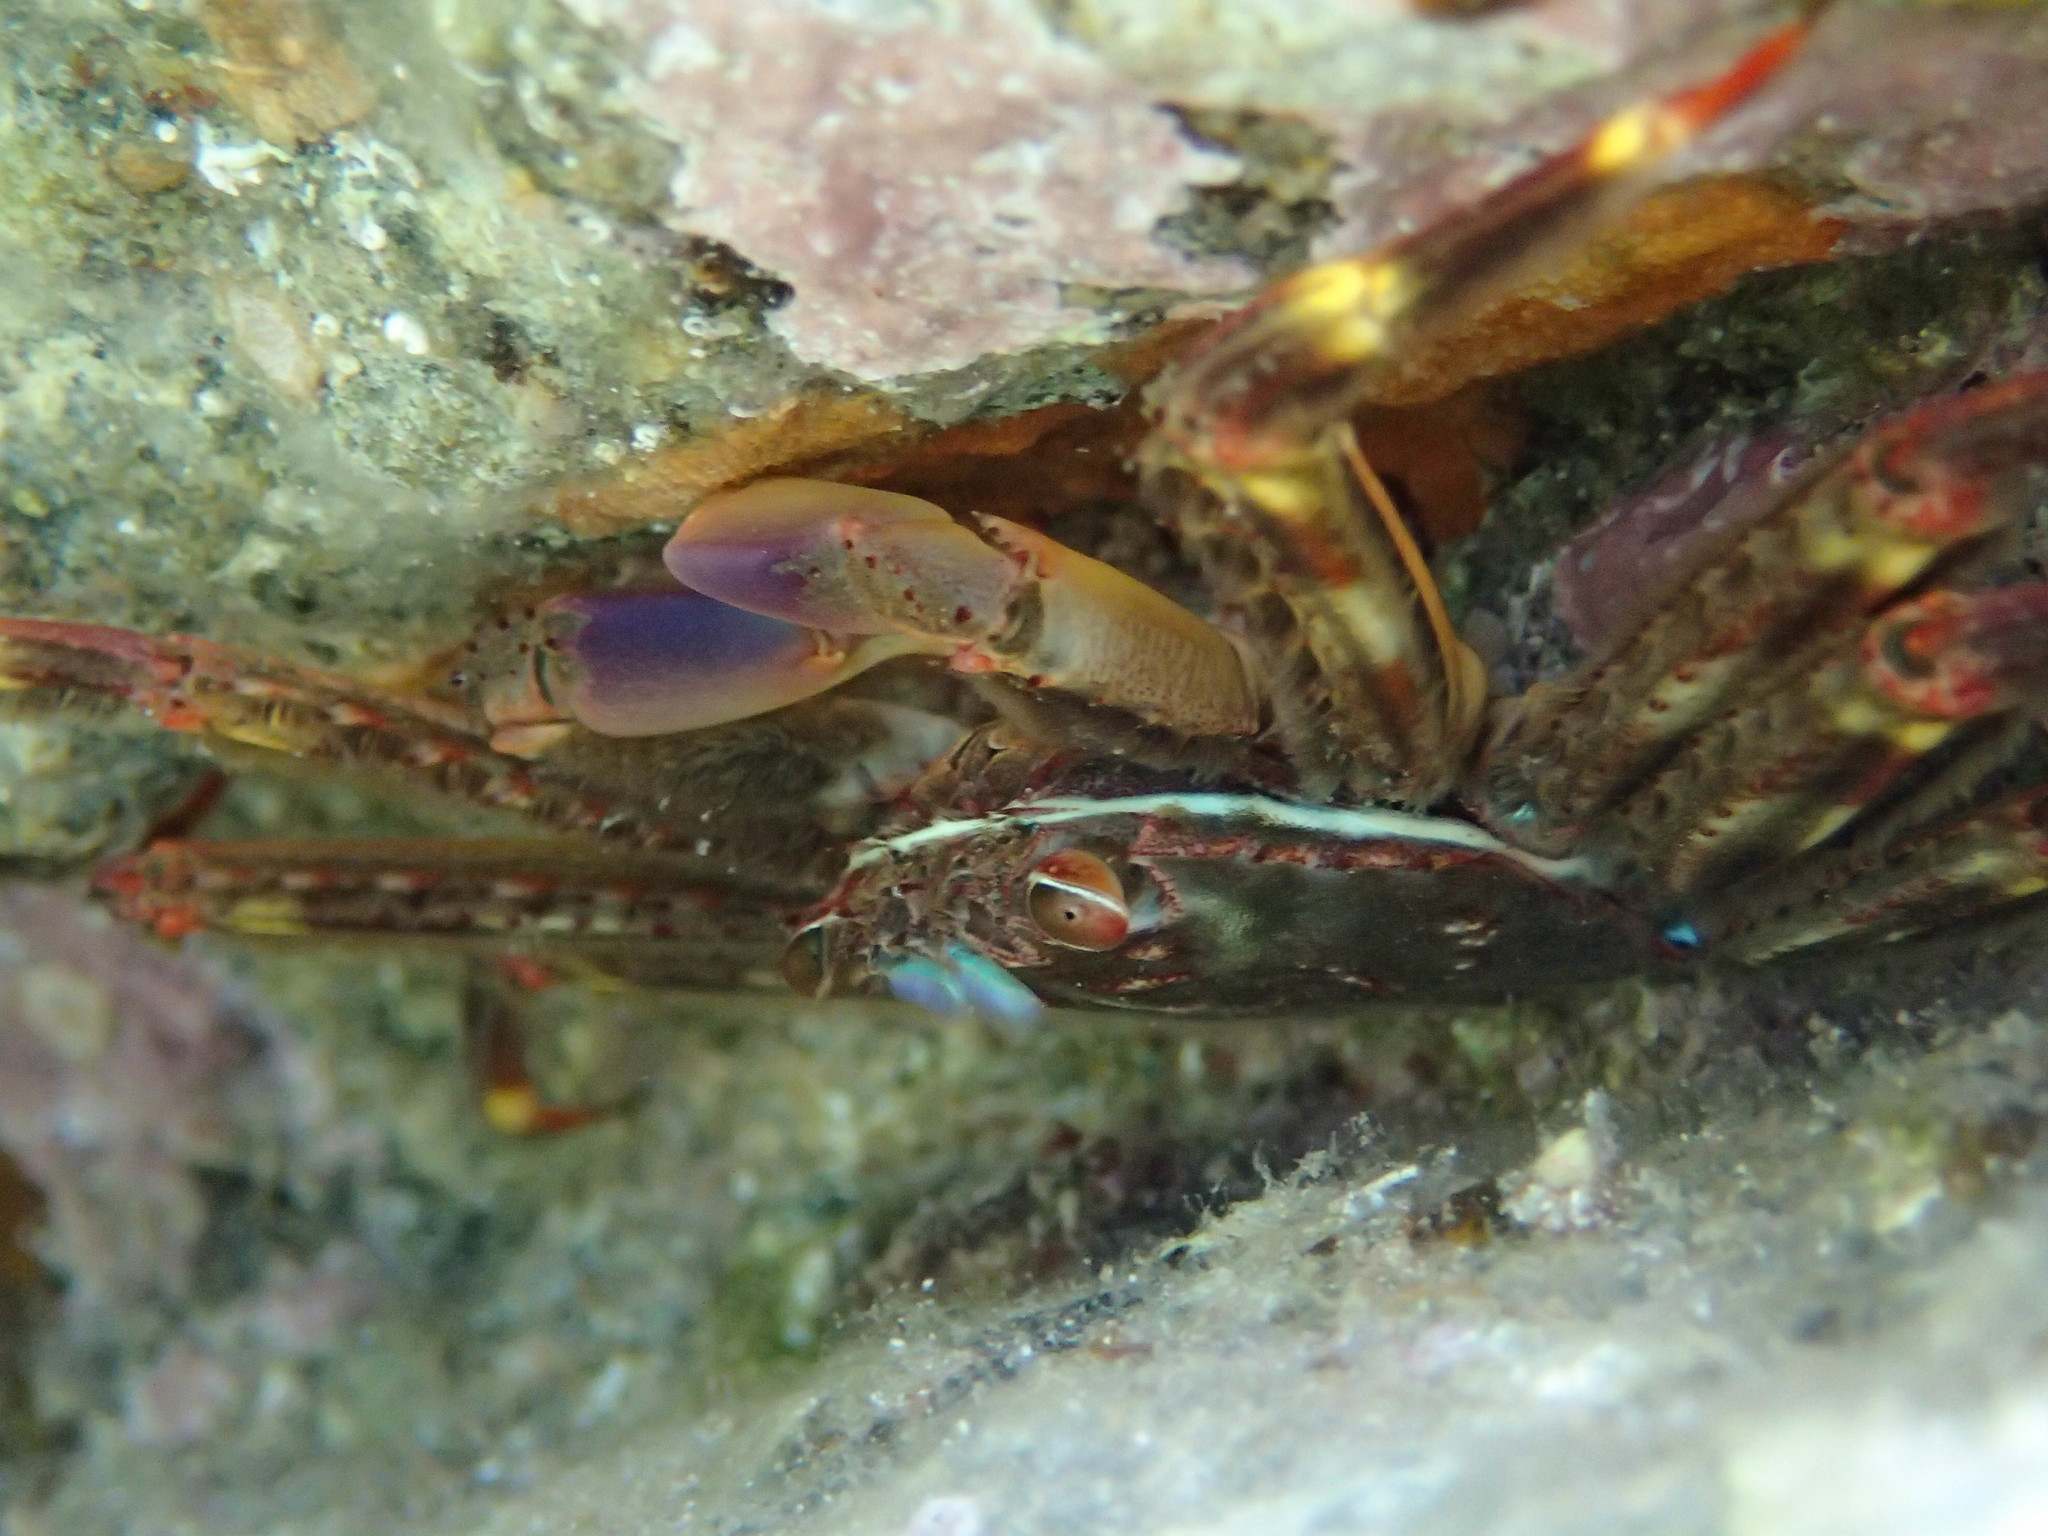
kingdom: Animalia
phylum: Arthropoda
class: Malacostraca
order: Decapoda
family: Percnidae
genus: Percnon
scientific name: Percnon gibbesi
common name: Nimble spray crab
